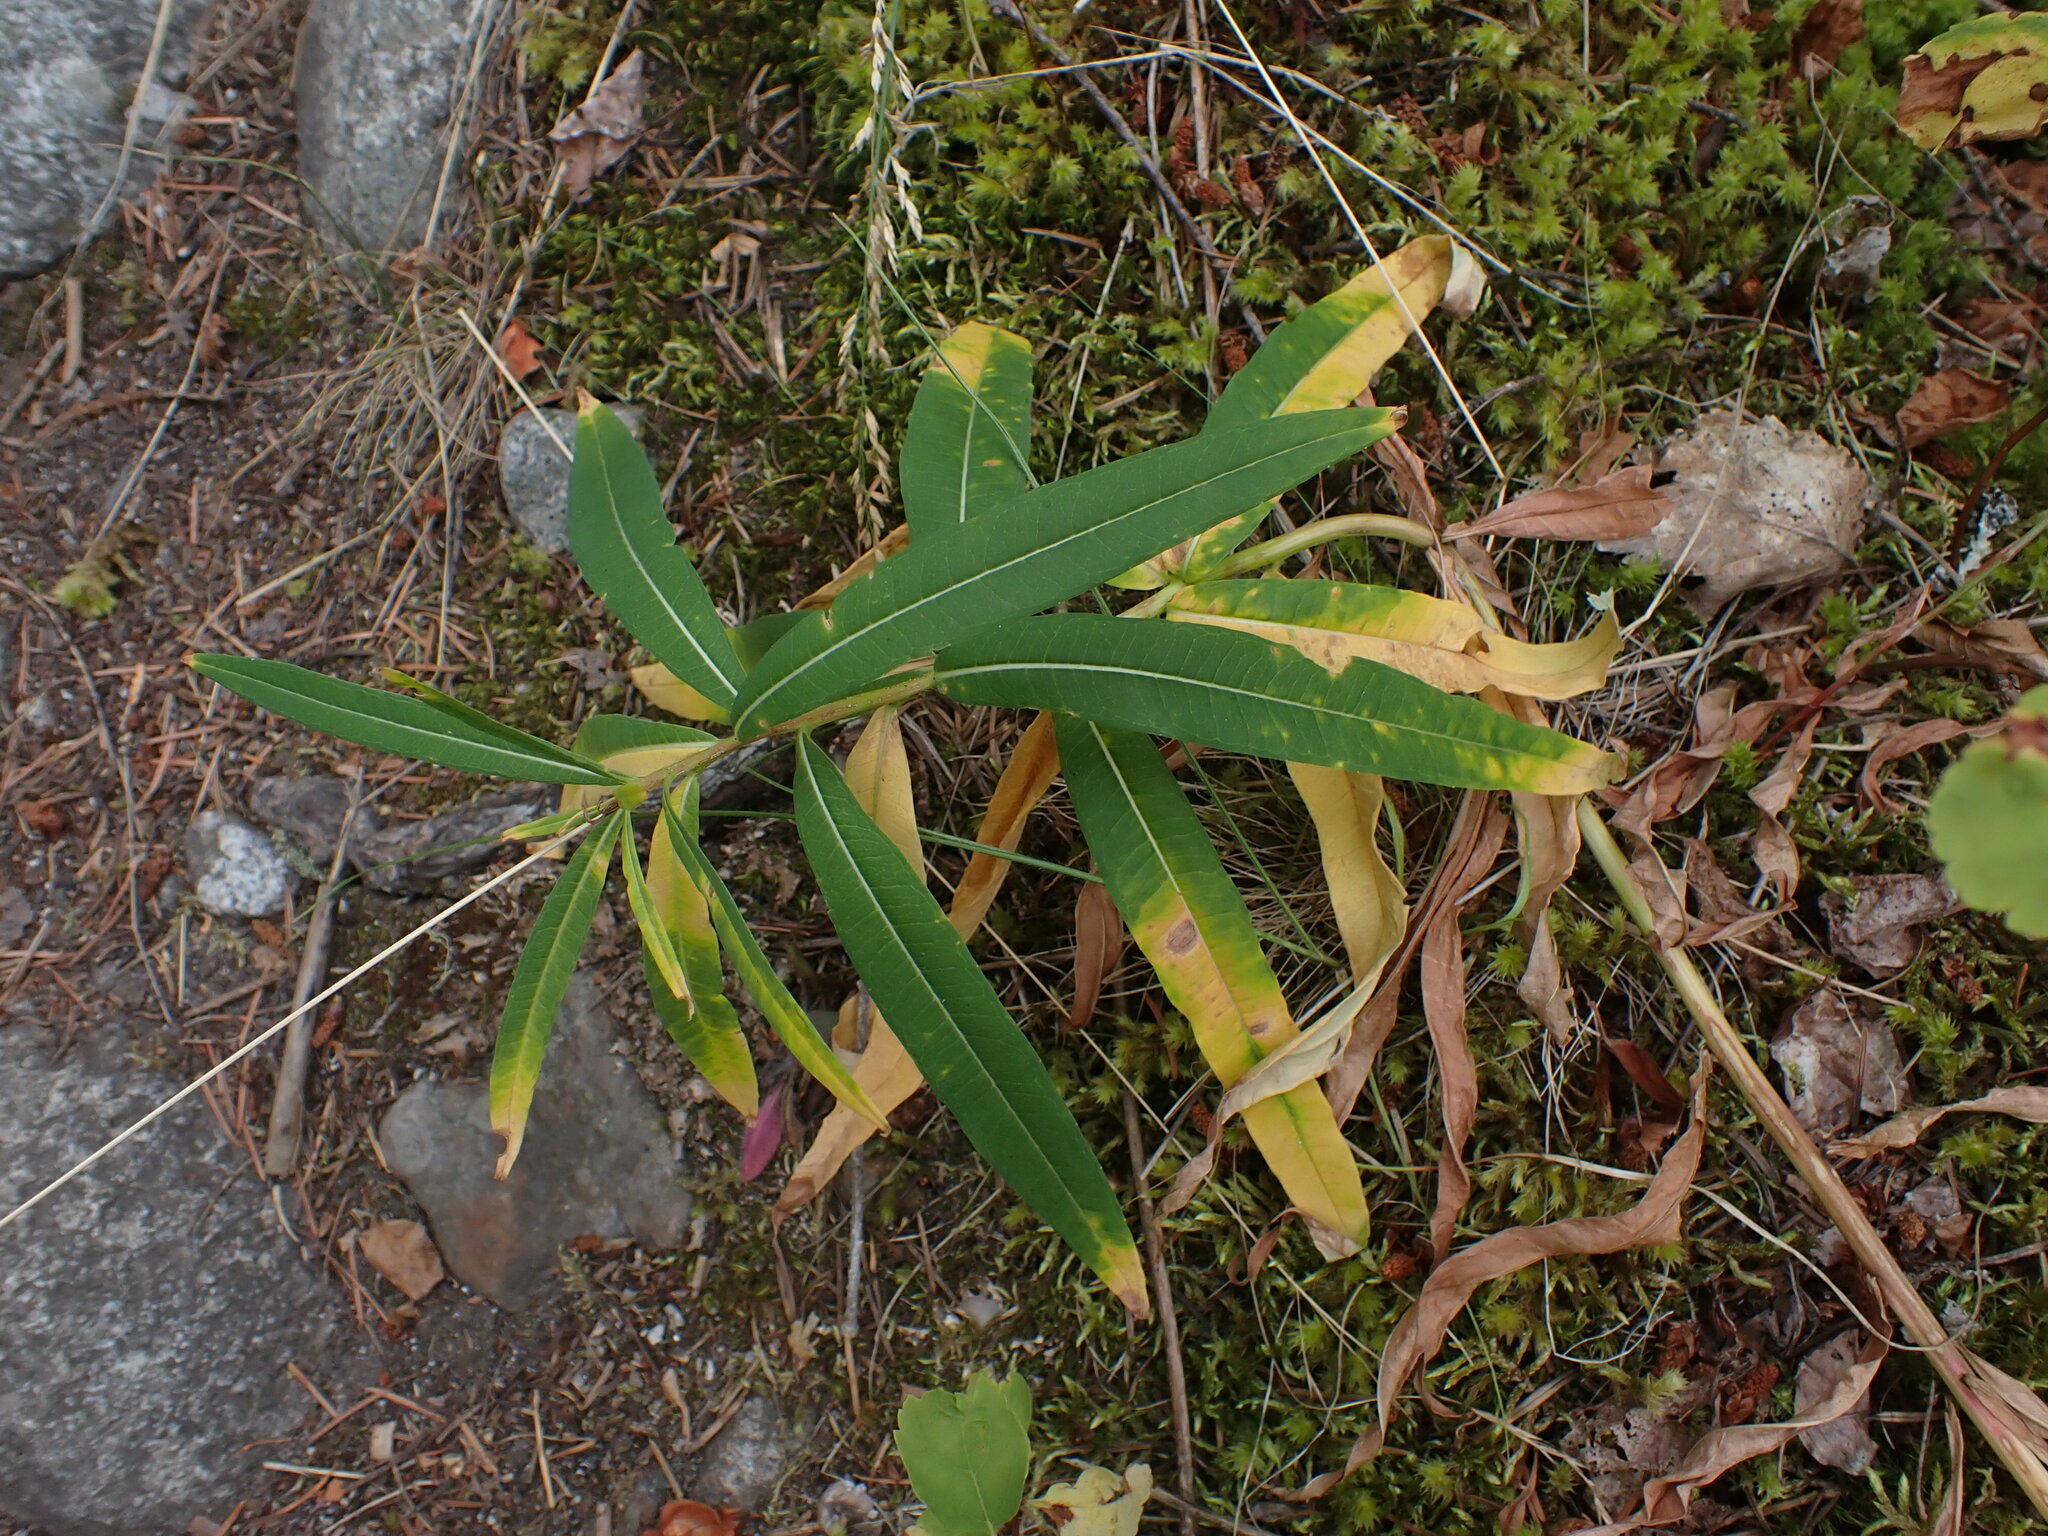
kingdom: Plantae
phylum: Tracheophyta
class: Magnoliopsida
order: Myrtales
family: Onagraceae
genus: Chamaenerion
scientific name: Chamaenerion angustifolium
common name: Fireweed
